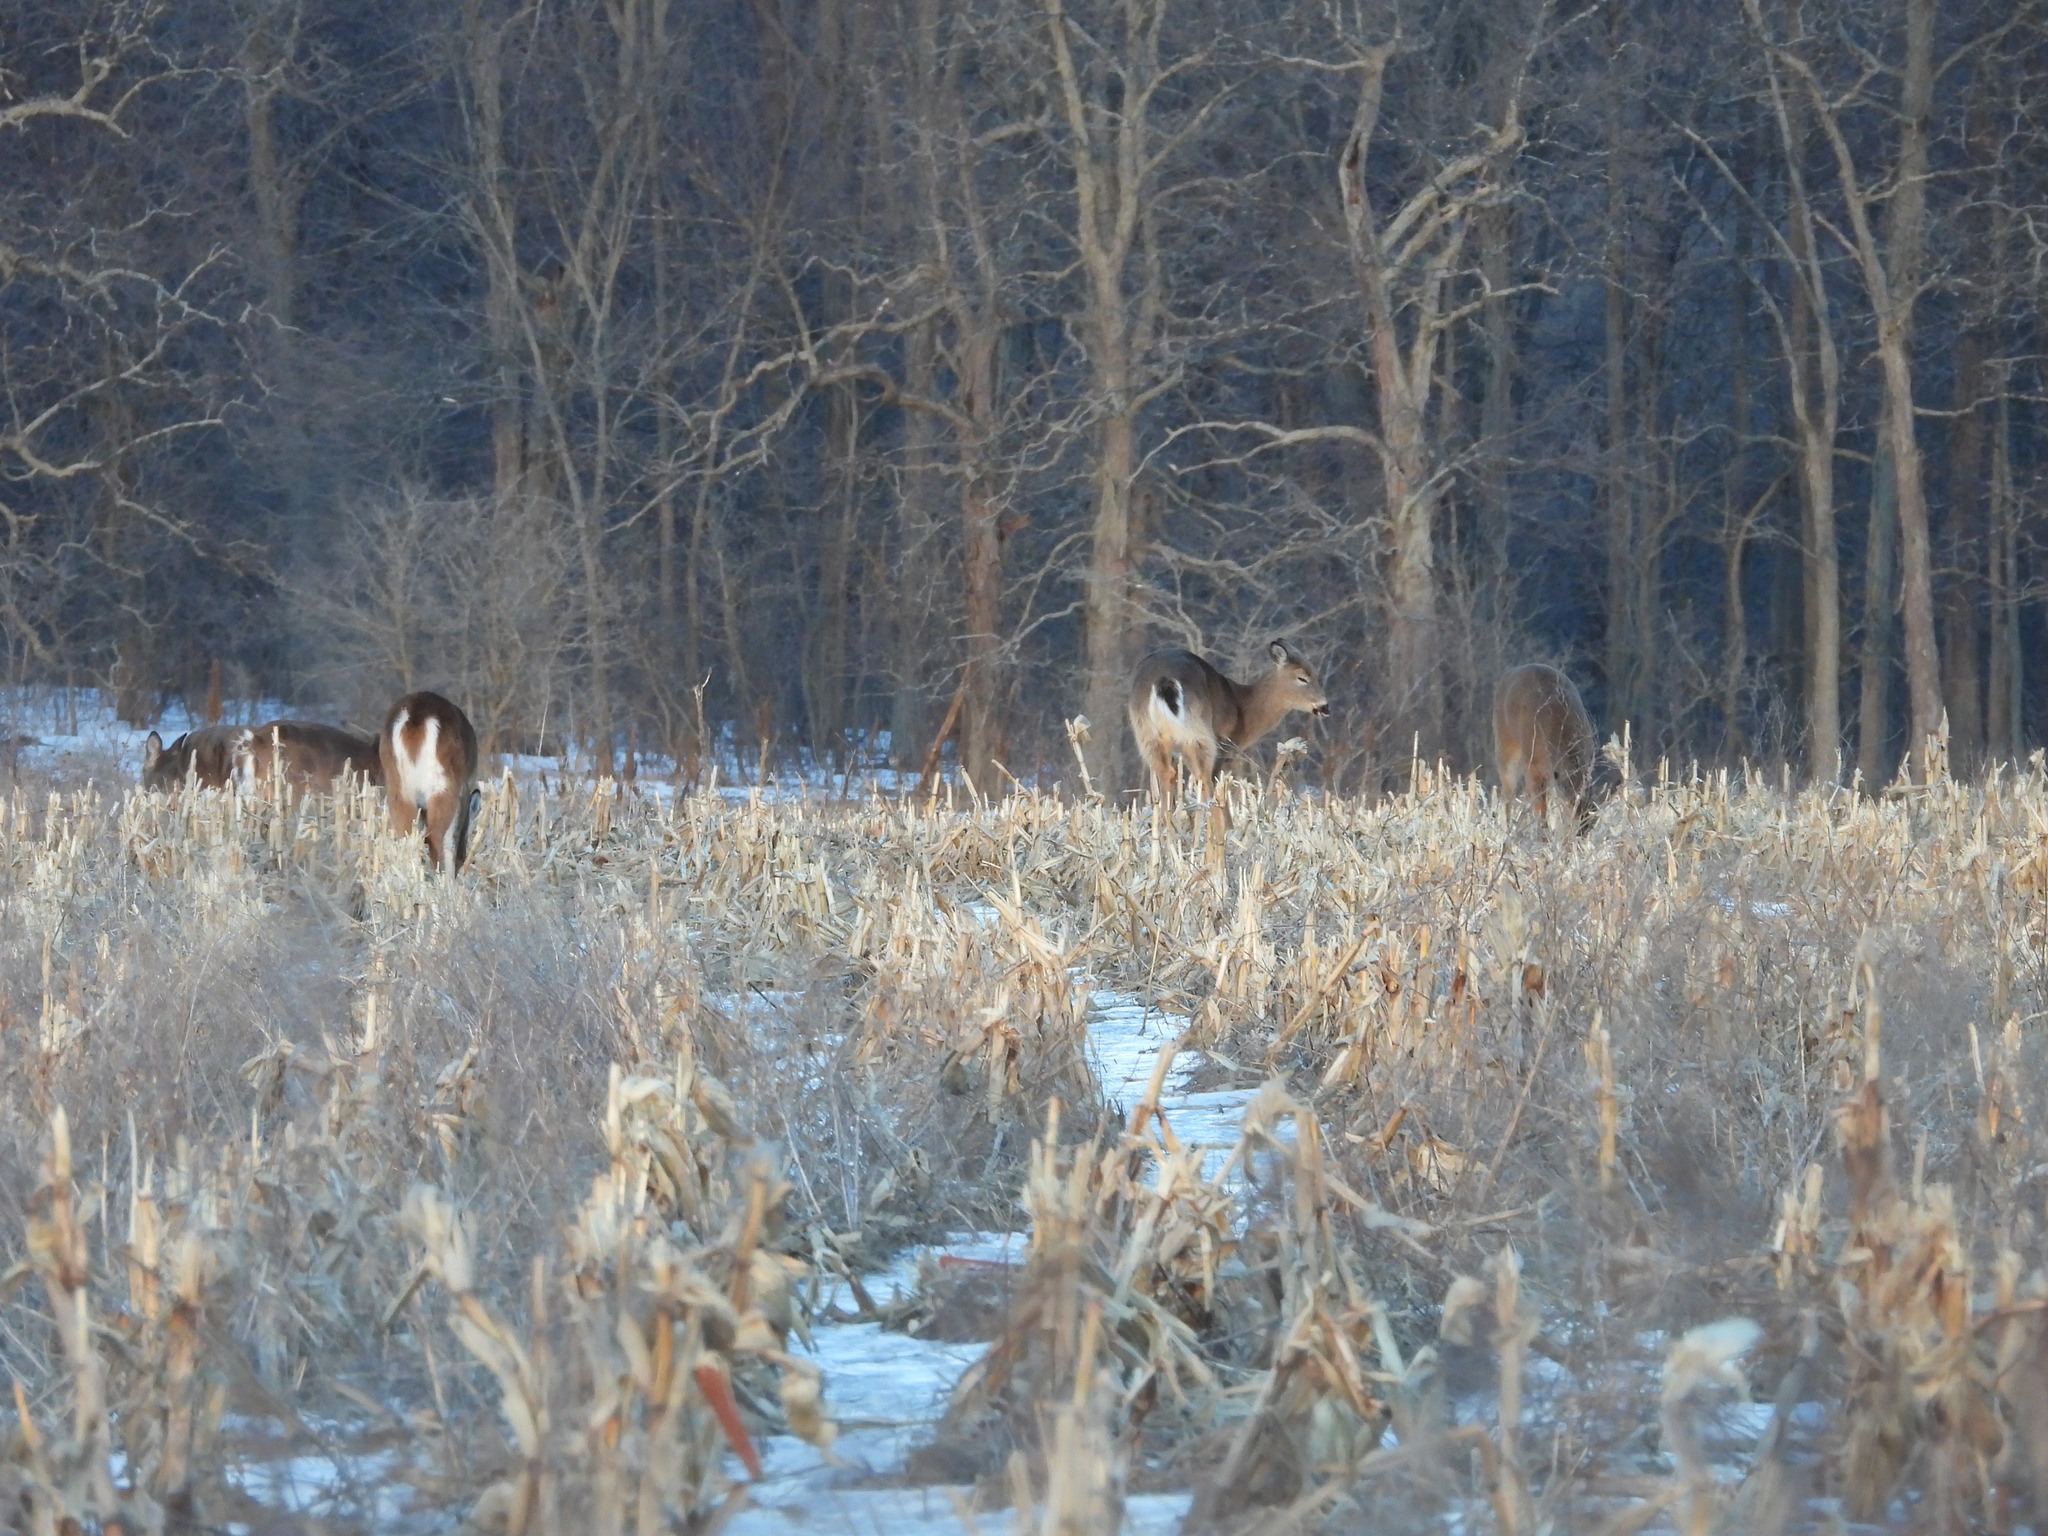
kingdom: Animalia
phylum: Chordata
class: Mammalia
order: Artiodactyla
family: Cervidae
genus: Odocoileus
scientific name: Odocoileus virginianus
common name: White-tailed deer
